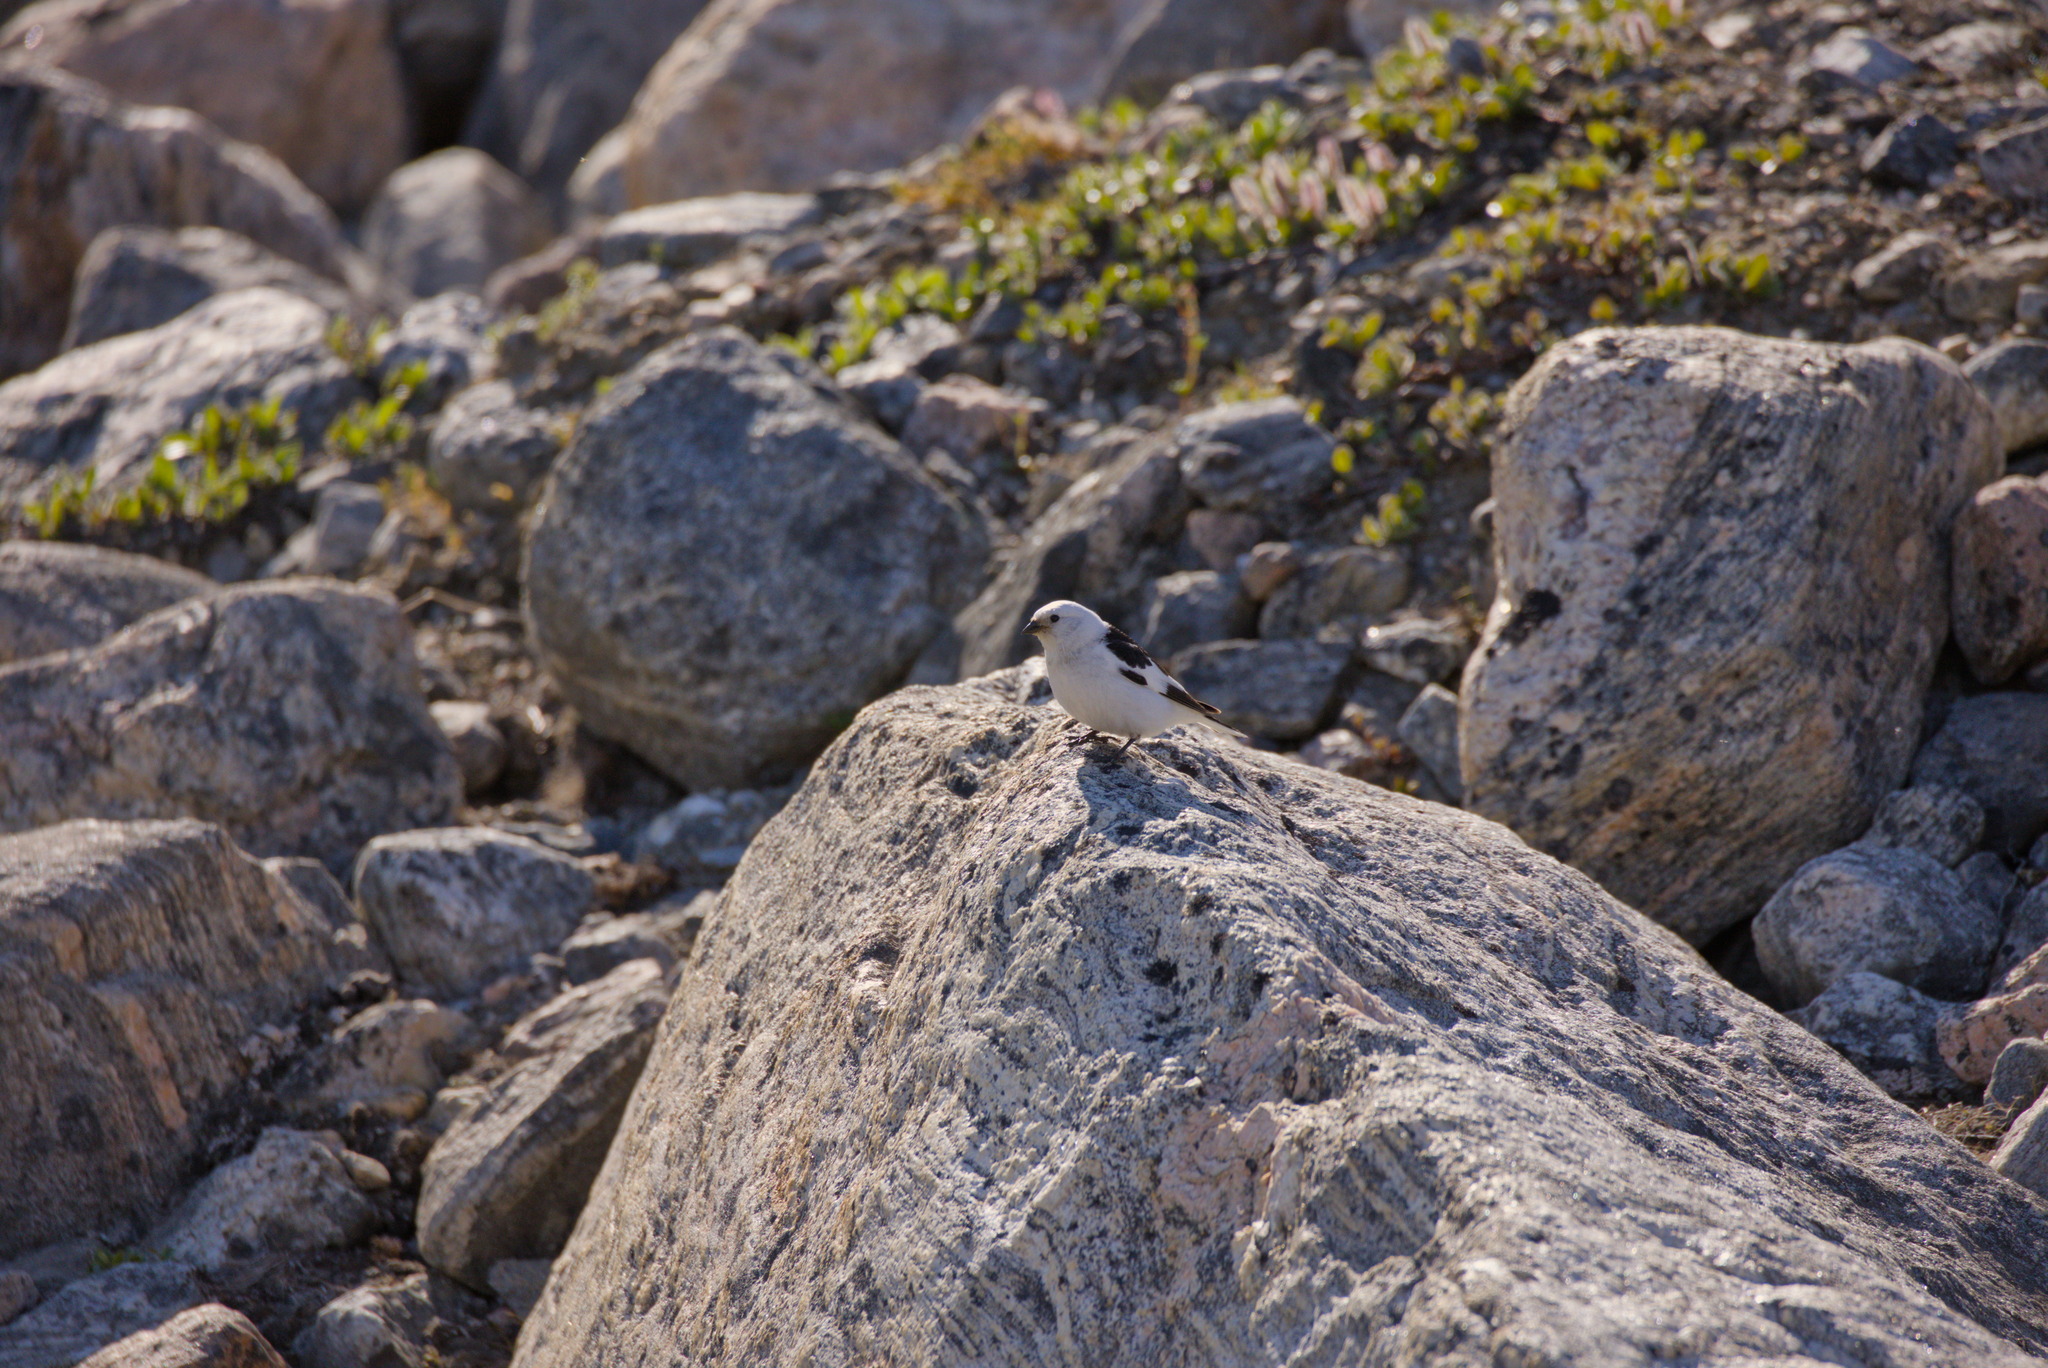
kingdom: Animalia
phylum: Chordata
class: Aves
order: Passeriformes
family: Calcariidae
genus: Plectrophenax
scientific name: Plectrophenax nivalis
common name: Snow bunting
